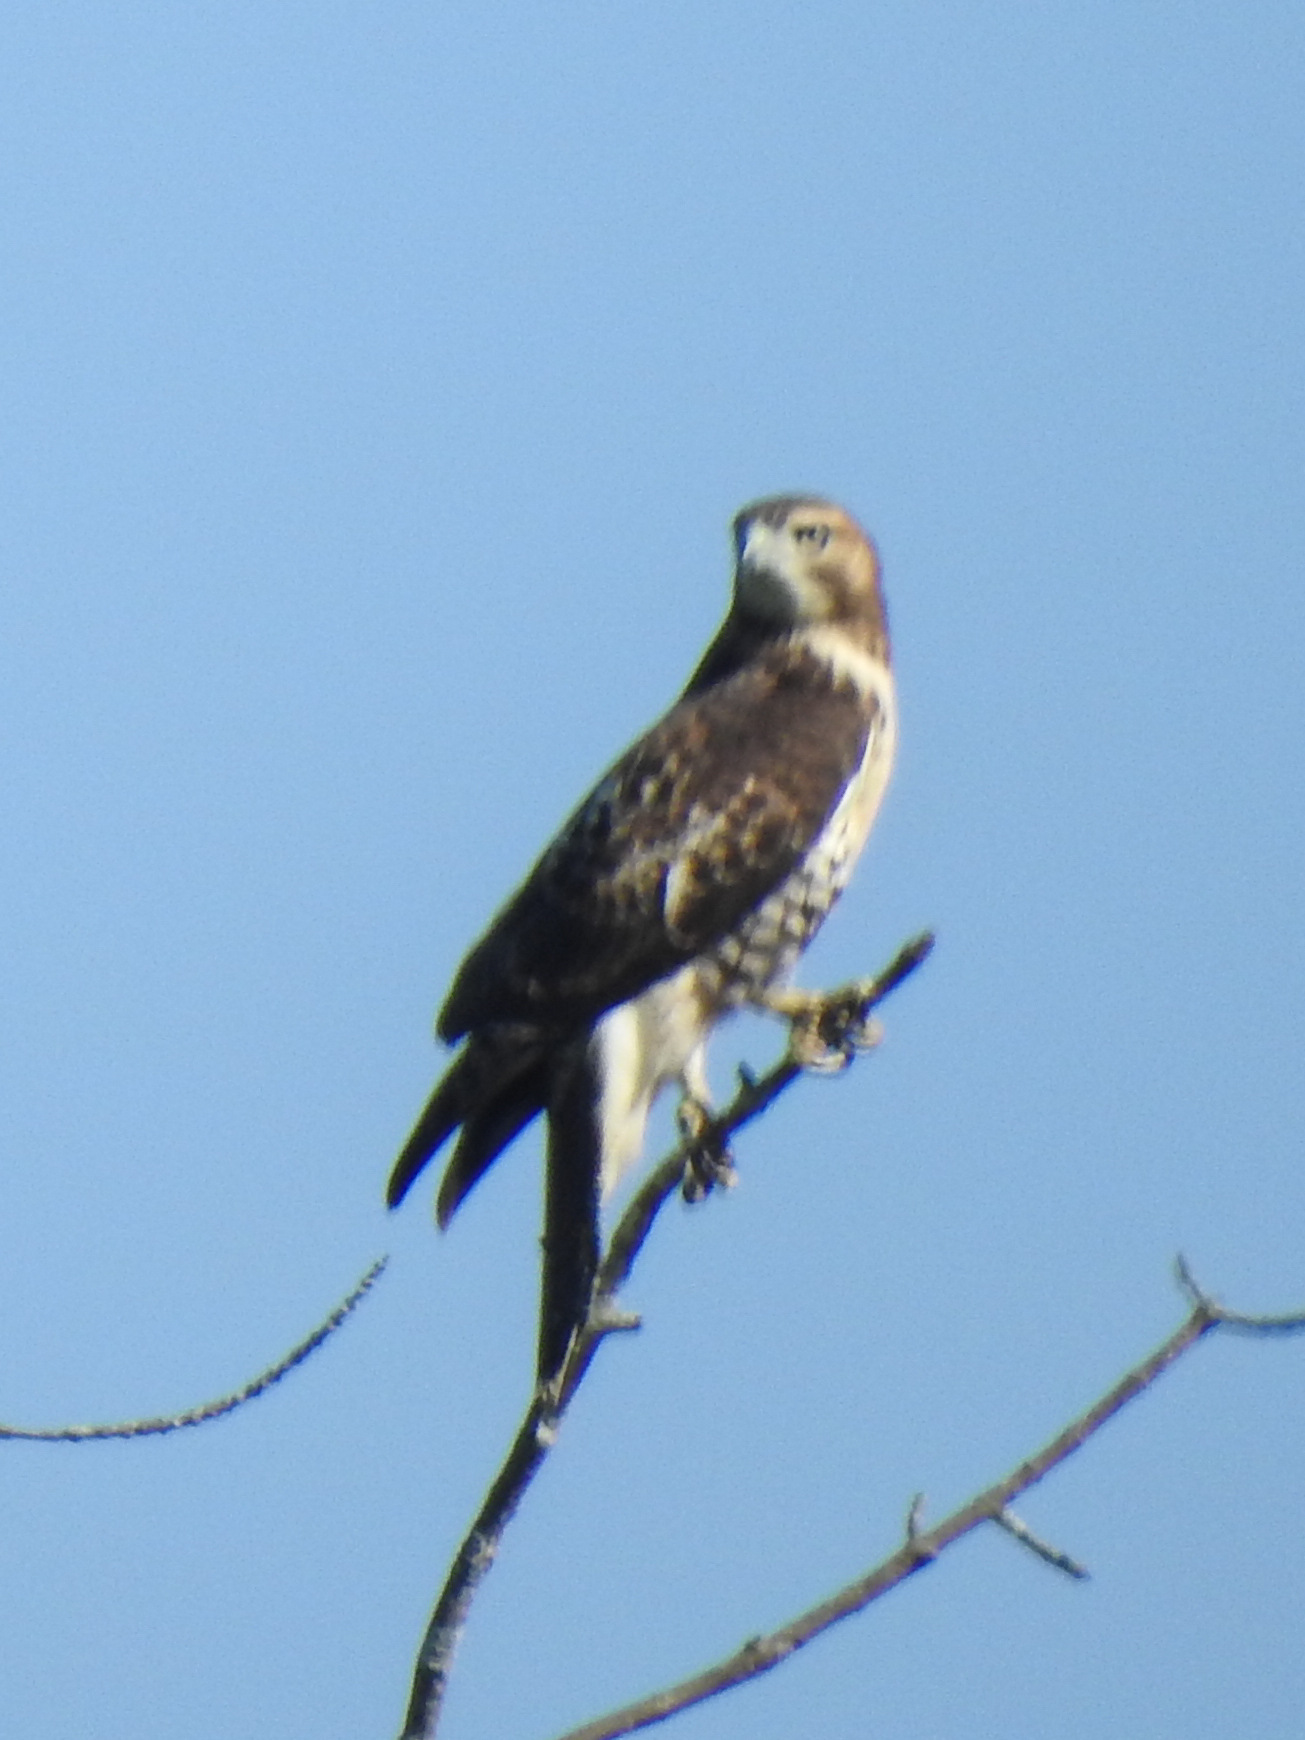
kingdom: Animalia
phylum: Chordata
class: Aves
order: Accipitriformes
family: Accipitridae
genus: Buteo
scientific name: Buteo jamaicensis
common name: Red-tailed hawk
